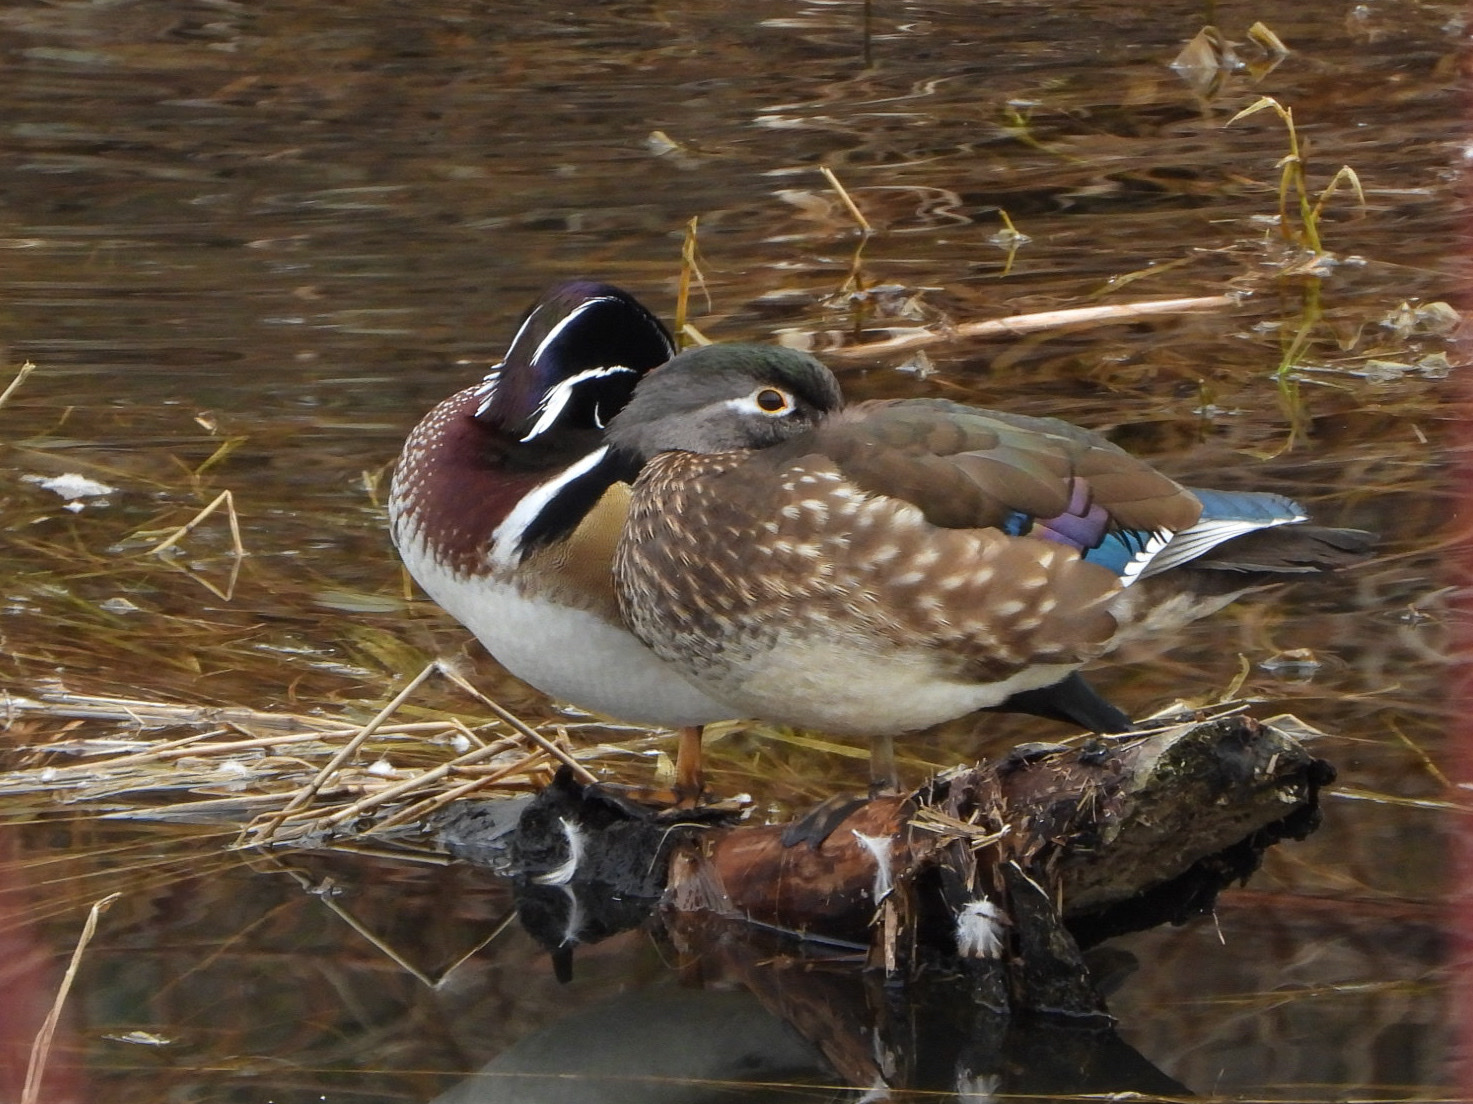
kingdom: Animalia
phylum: Chordata
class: Aves
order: Anseriformes
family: Anatidae
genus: Aix
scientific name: Aix sponsa
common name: Wood duck
